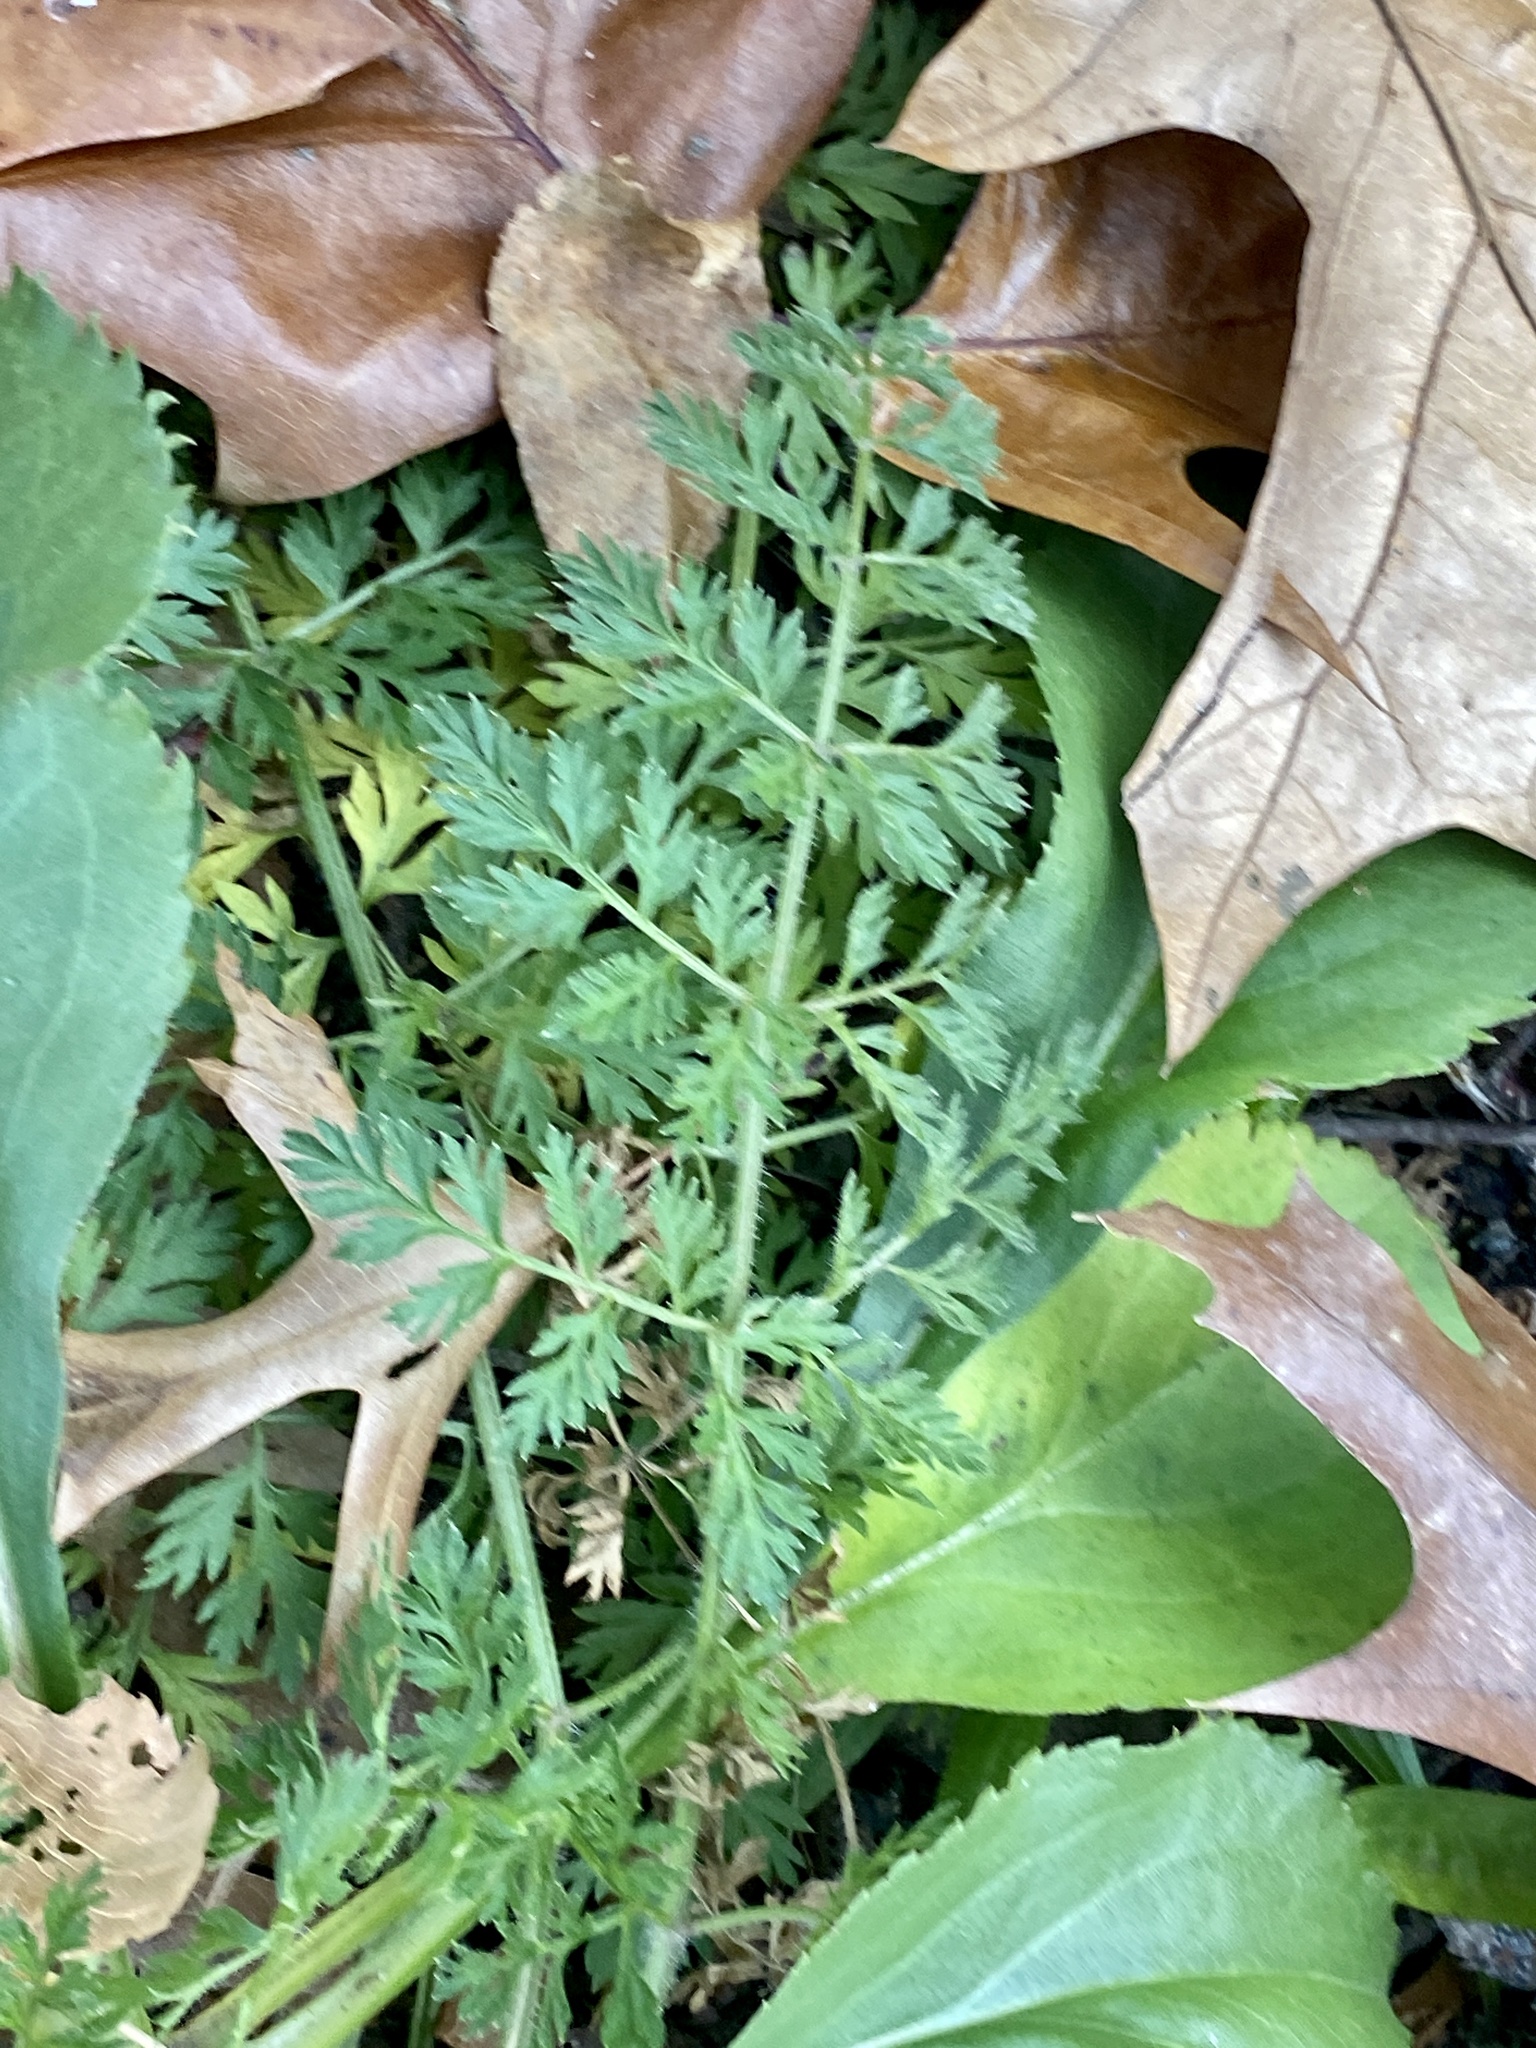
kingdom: Plantae
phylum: Tracheophyta
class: Magnoliopsida
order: Apiales
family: Apiaceae
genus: Daucus
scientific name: Daucus carota
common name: Wild carrot
